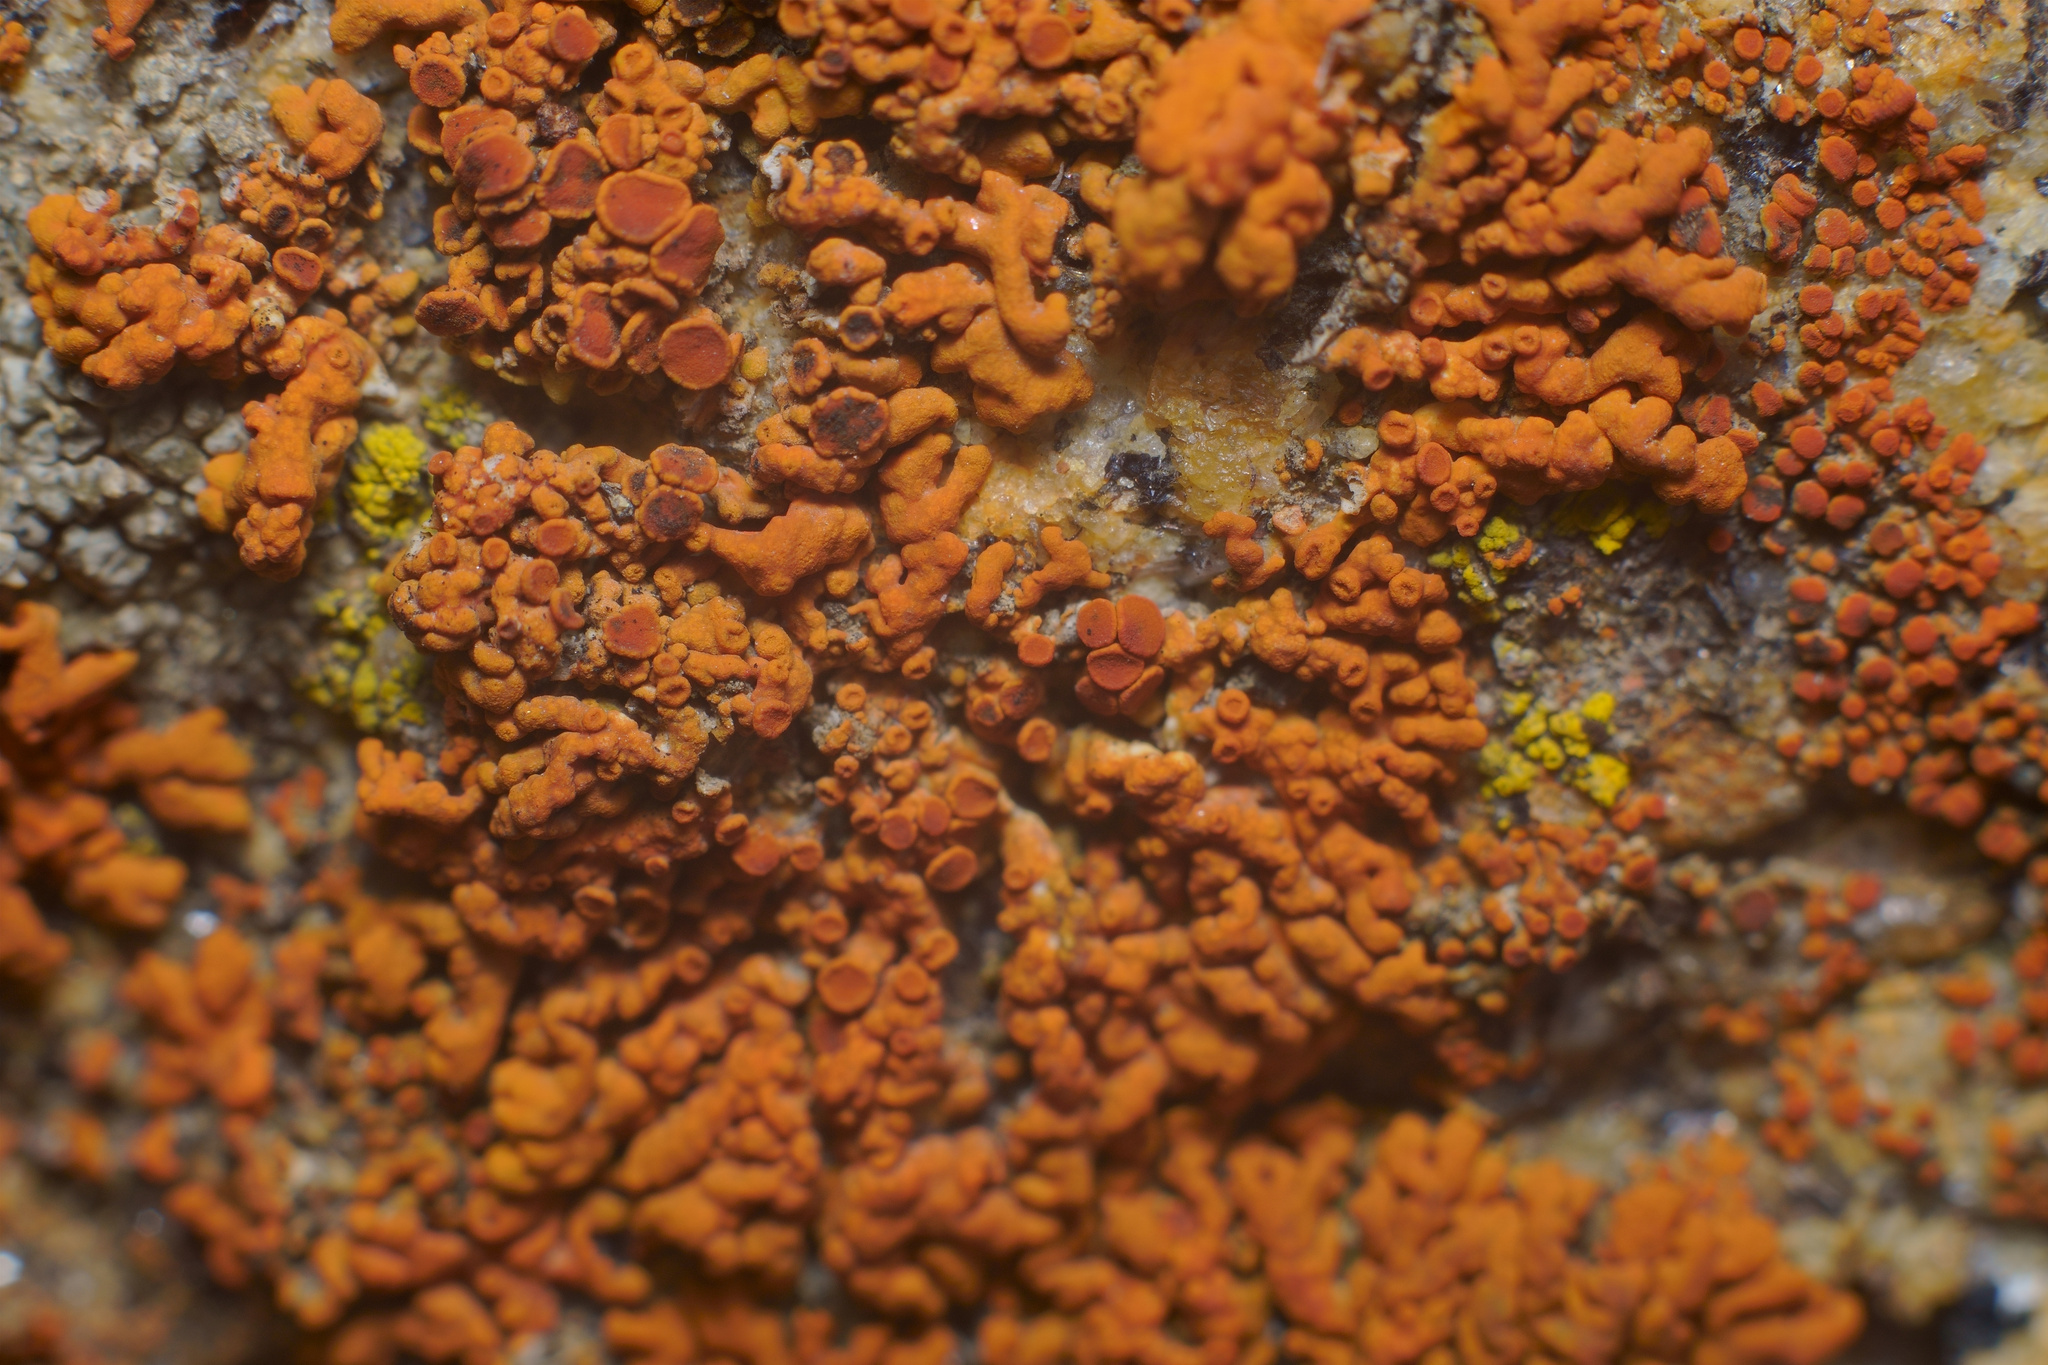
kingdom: Fungi
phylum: Ascomycota
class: Lecanoromycetes
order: Teloschistales
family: Teloschistaceae
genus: Xanthoria
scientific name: Xanthoria elegans
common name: Elegant sunburst lichen
